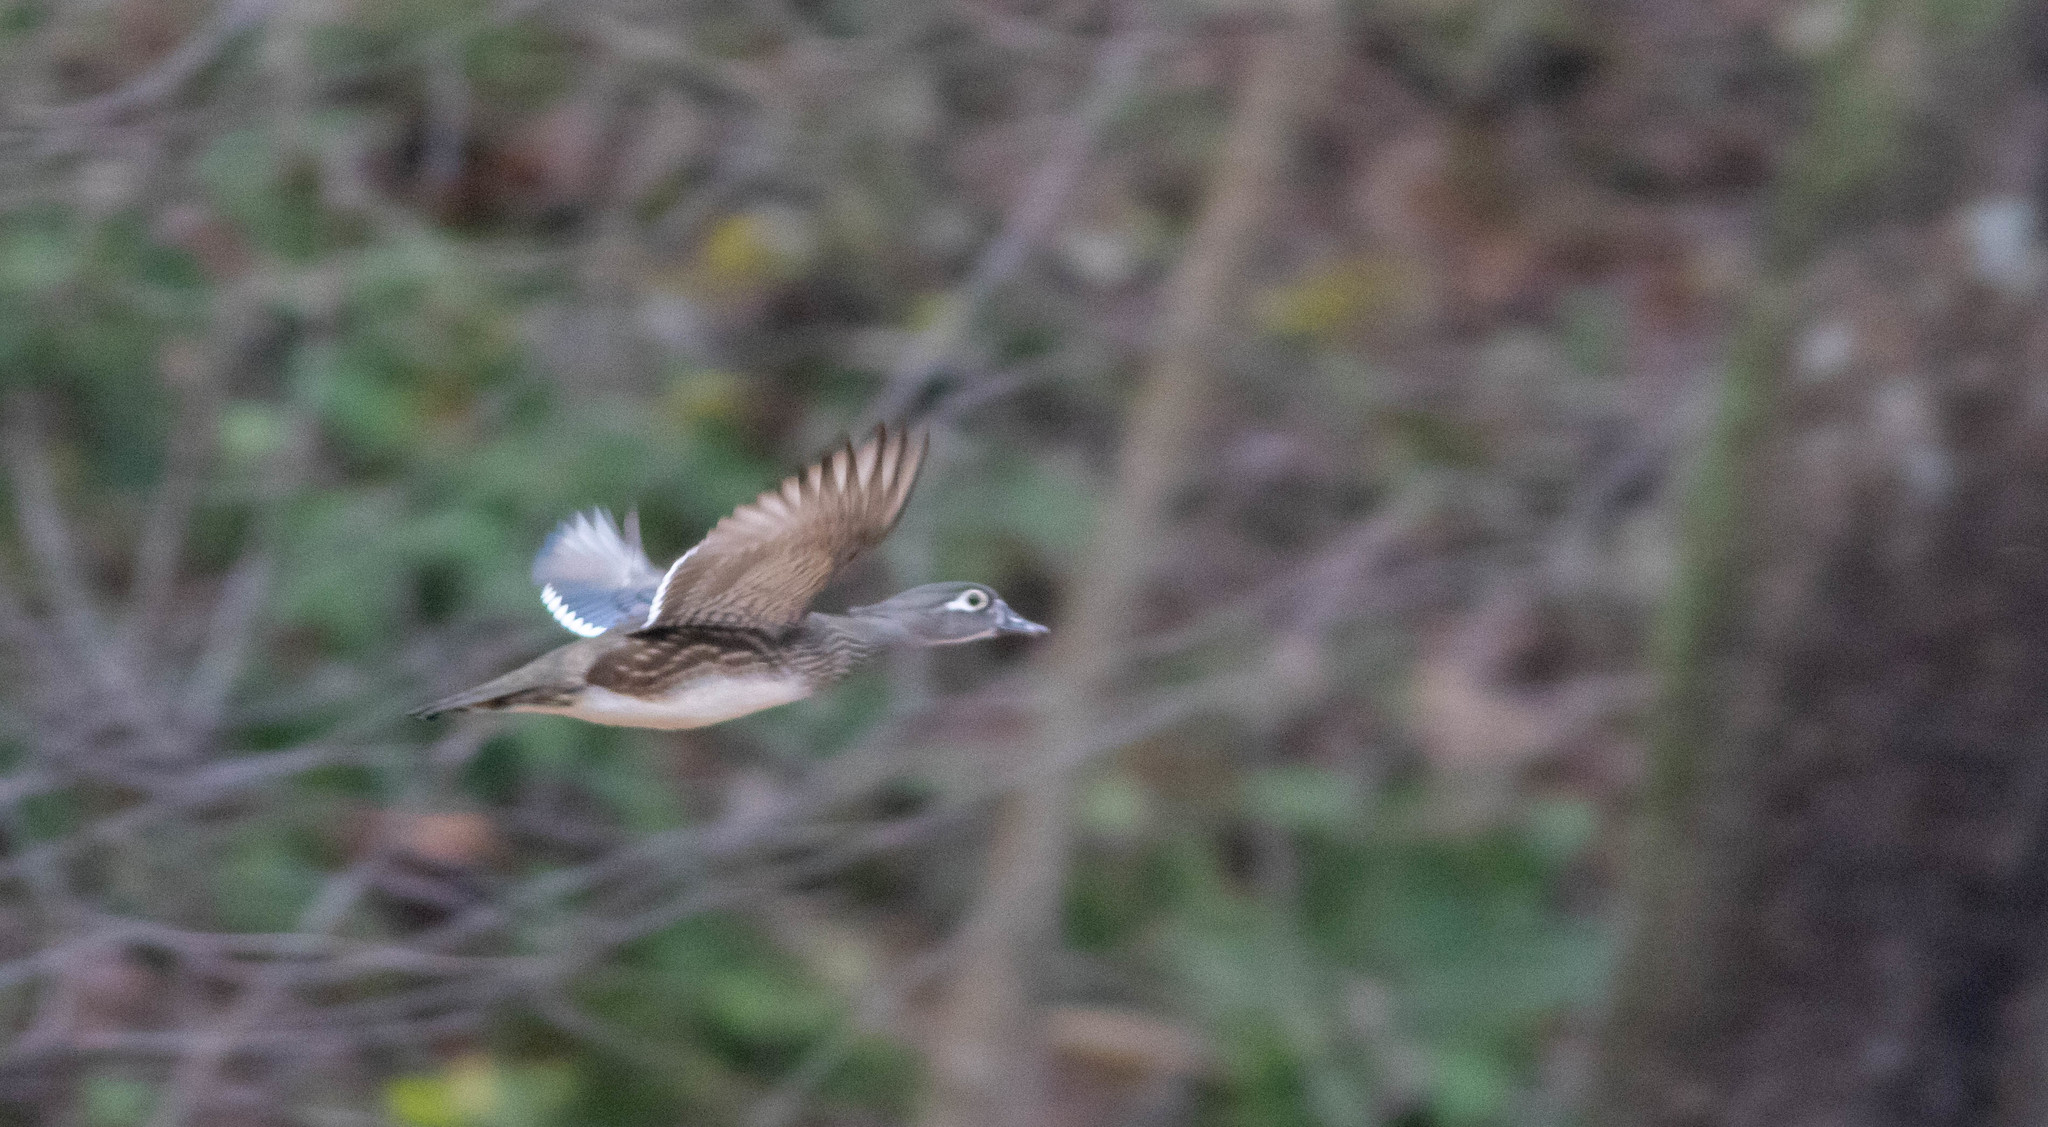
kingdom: Animalia
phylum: Chordata
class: Aves
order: Anseriformes
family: Anatidae
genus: Aix
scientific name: Aix sponsa
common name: Wood duck
